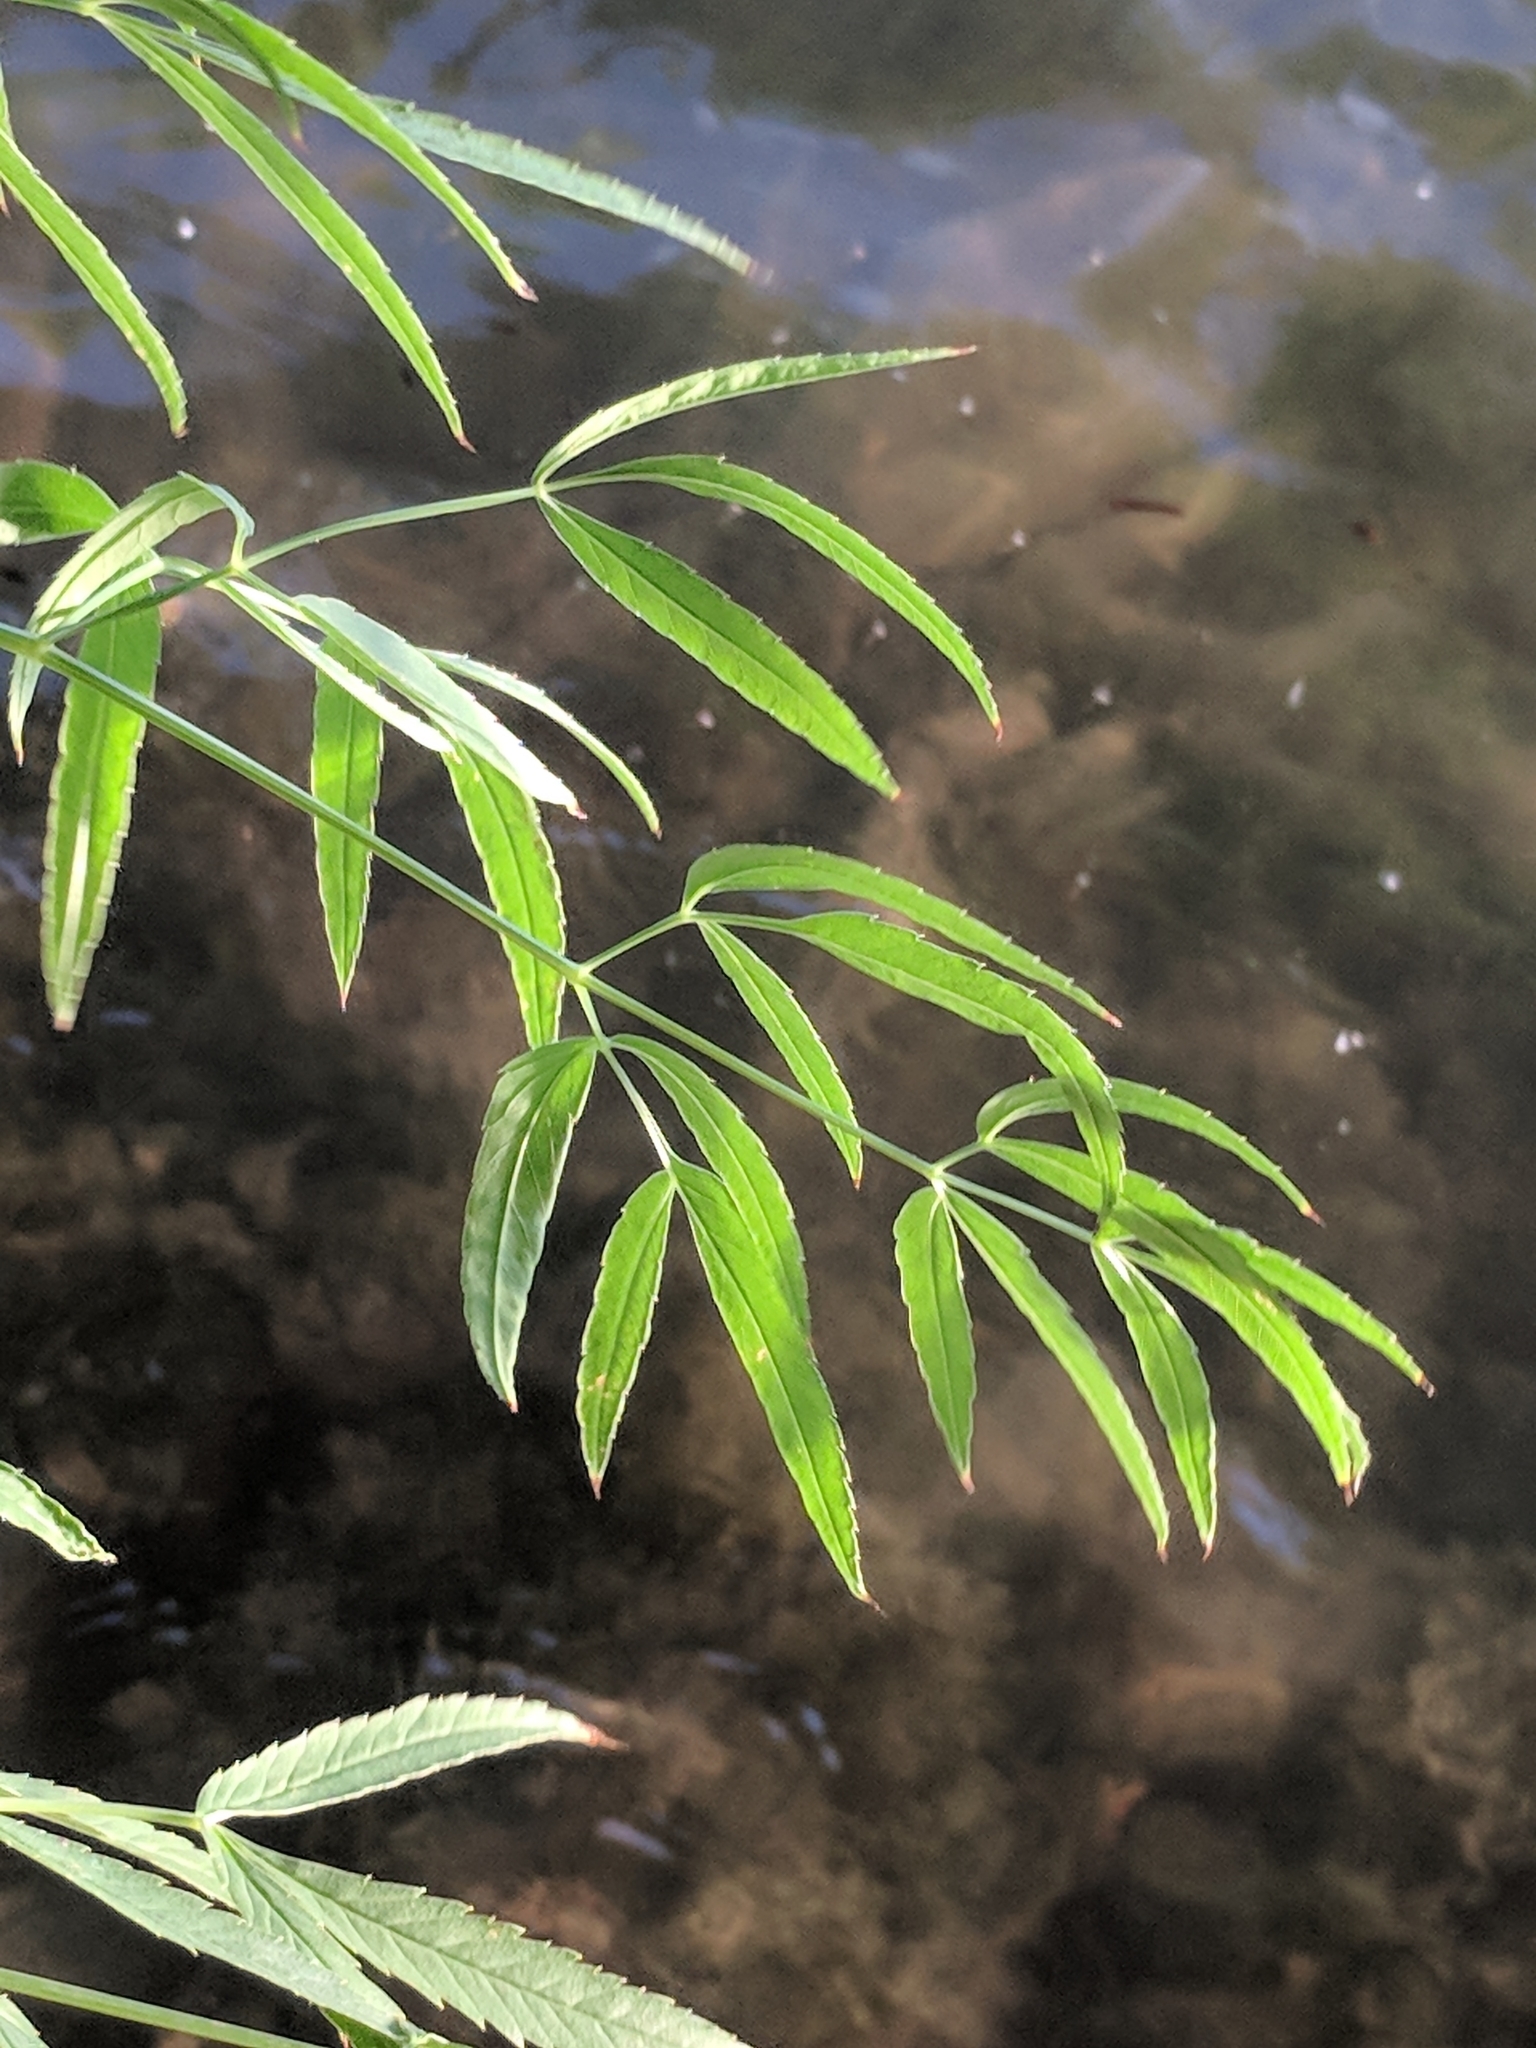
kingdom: Plantae
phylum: Tracheophyta
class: Magnoliopsida
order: Apiales
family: Apiaceae
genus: Cicuta
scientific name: Cicuta maculata
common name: Spotted cowbane
